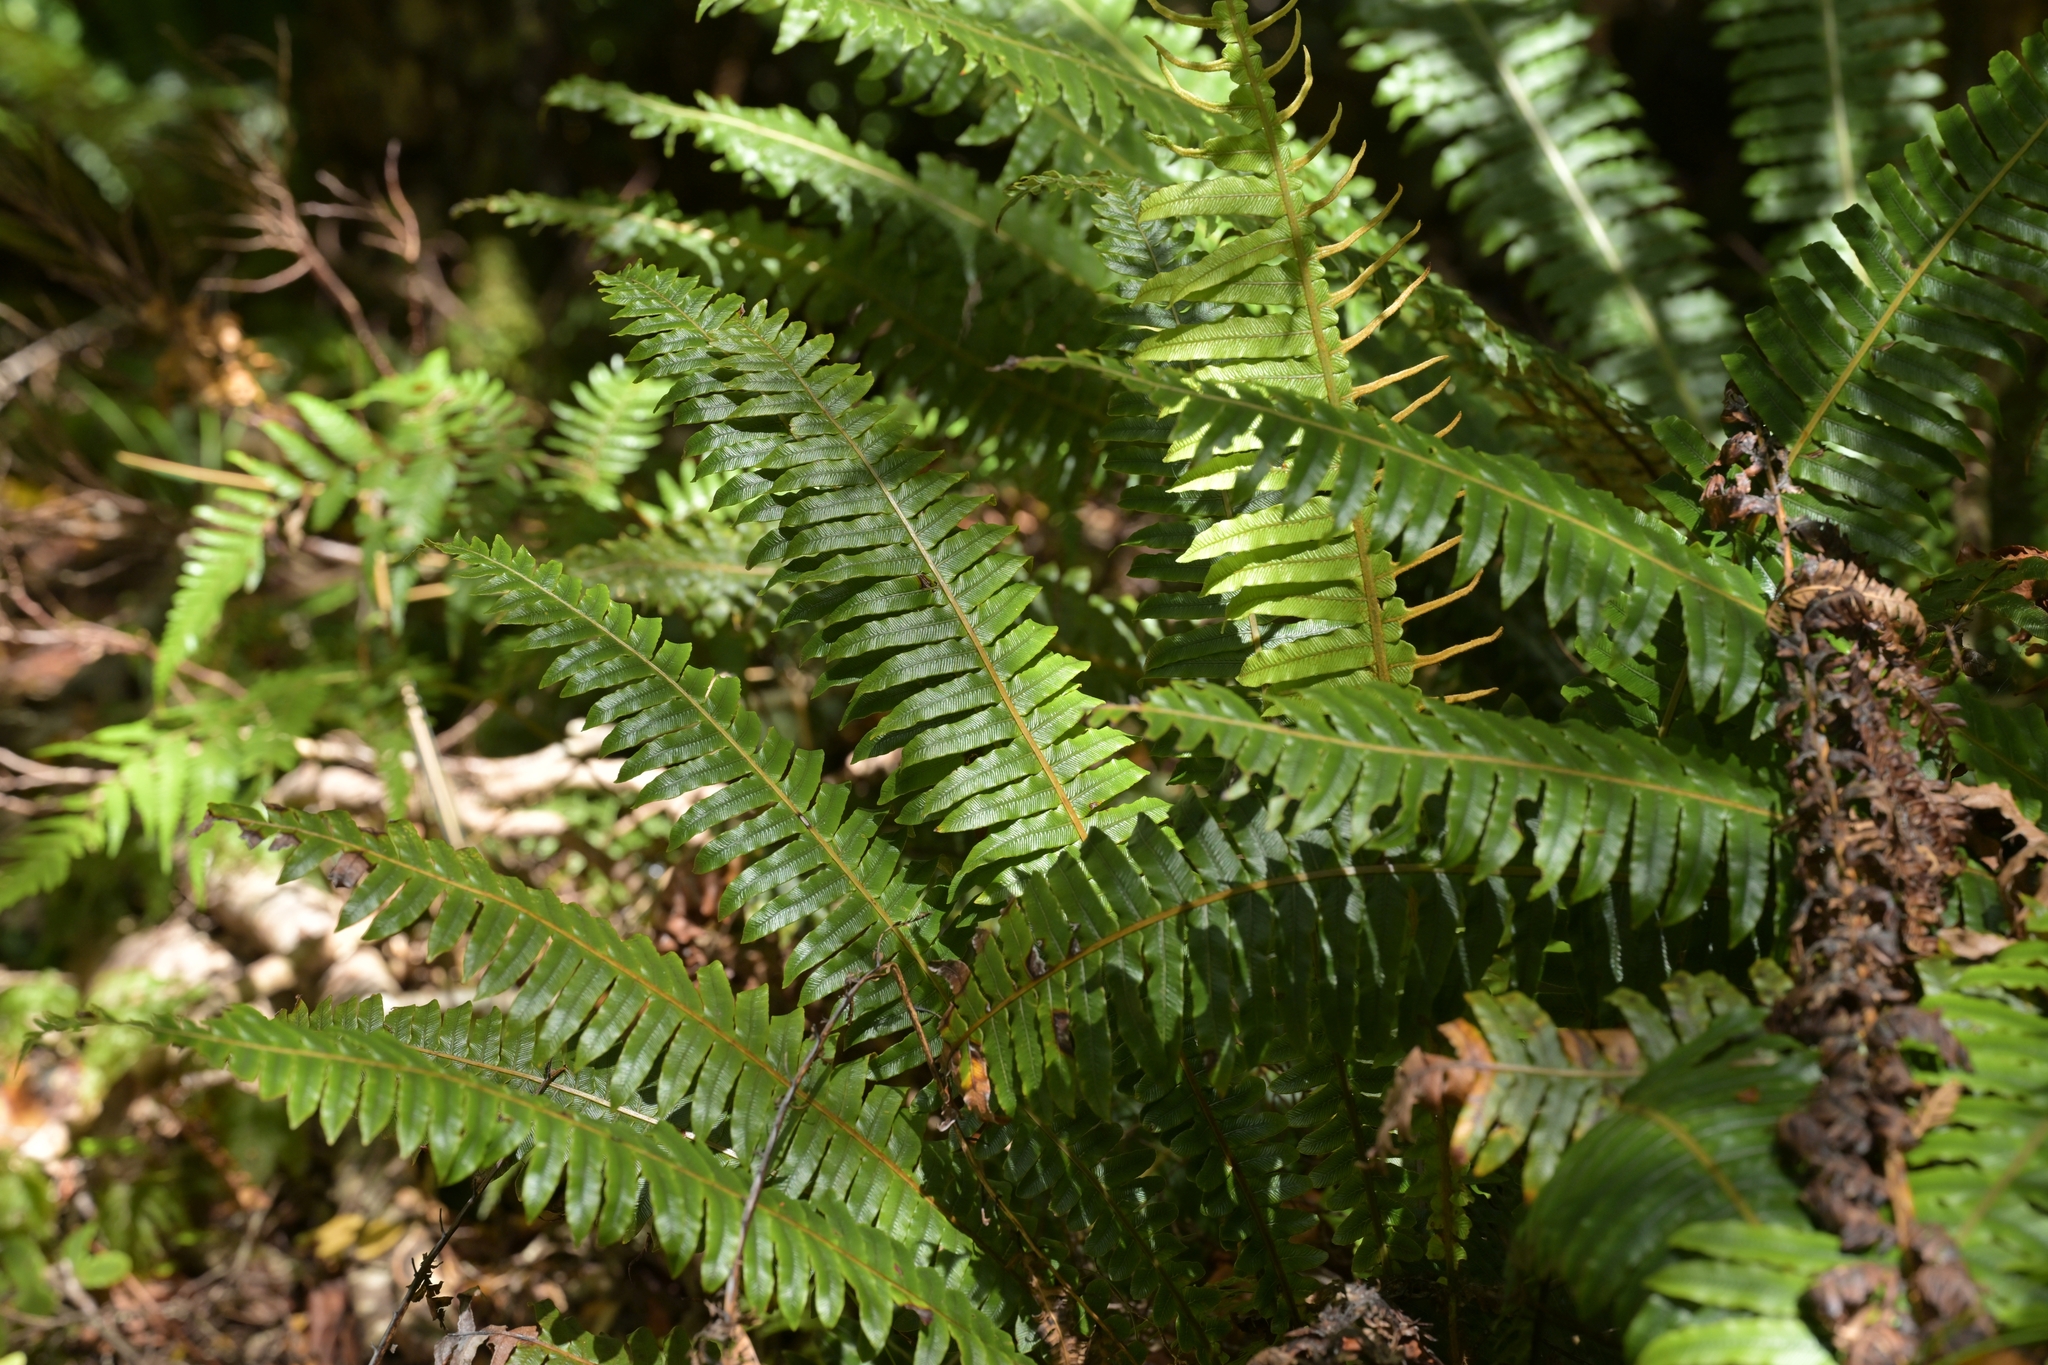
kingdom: Plantae
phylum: Tracheophyta
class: Polypodiopsida
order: Polypodiales
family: Blechnaceae
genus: Lomaria
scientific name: Lomaria discolor
